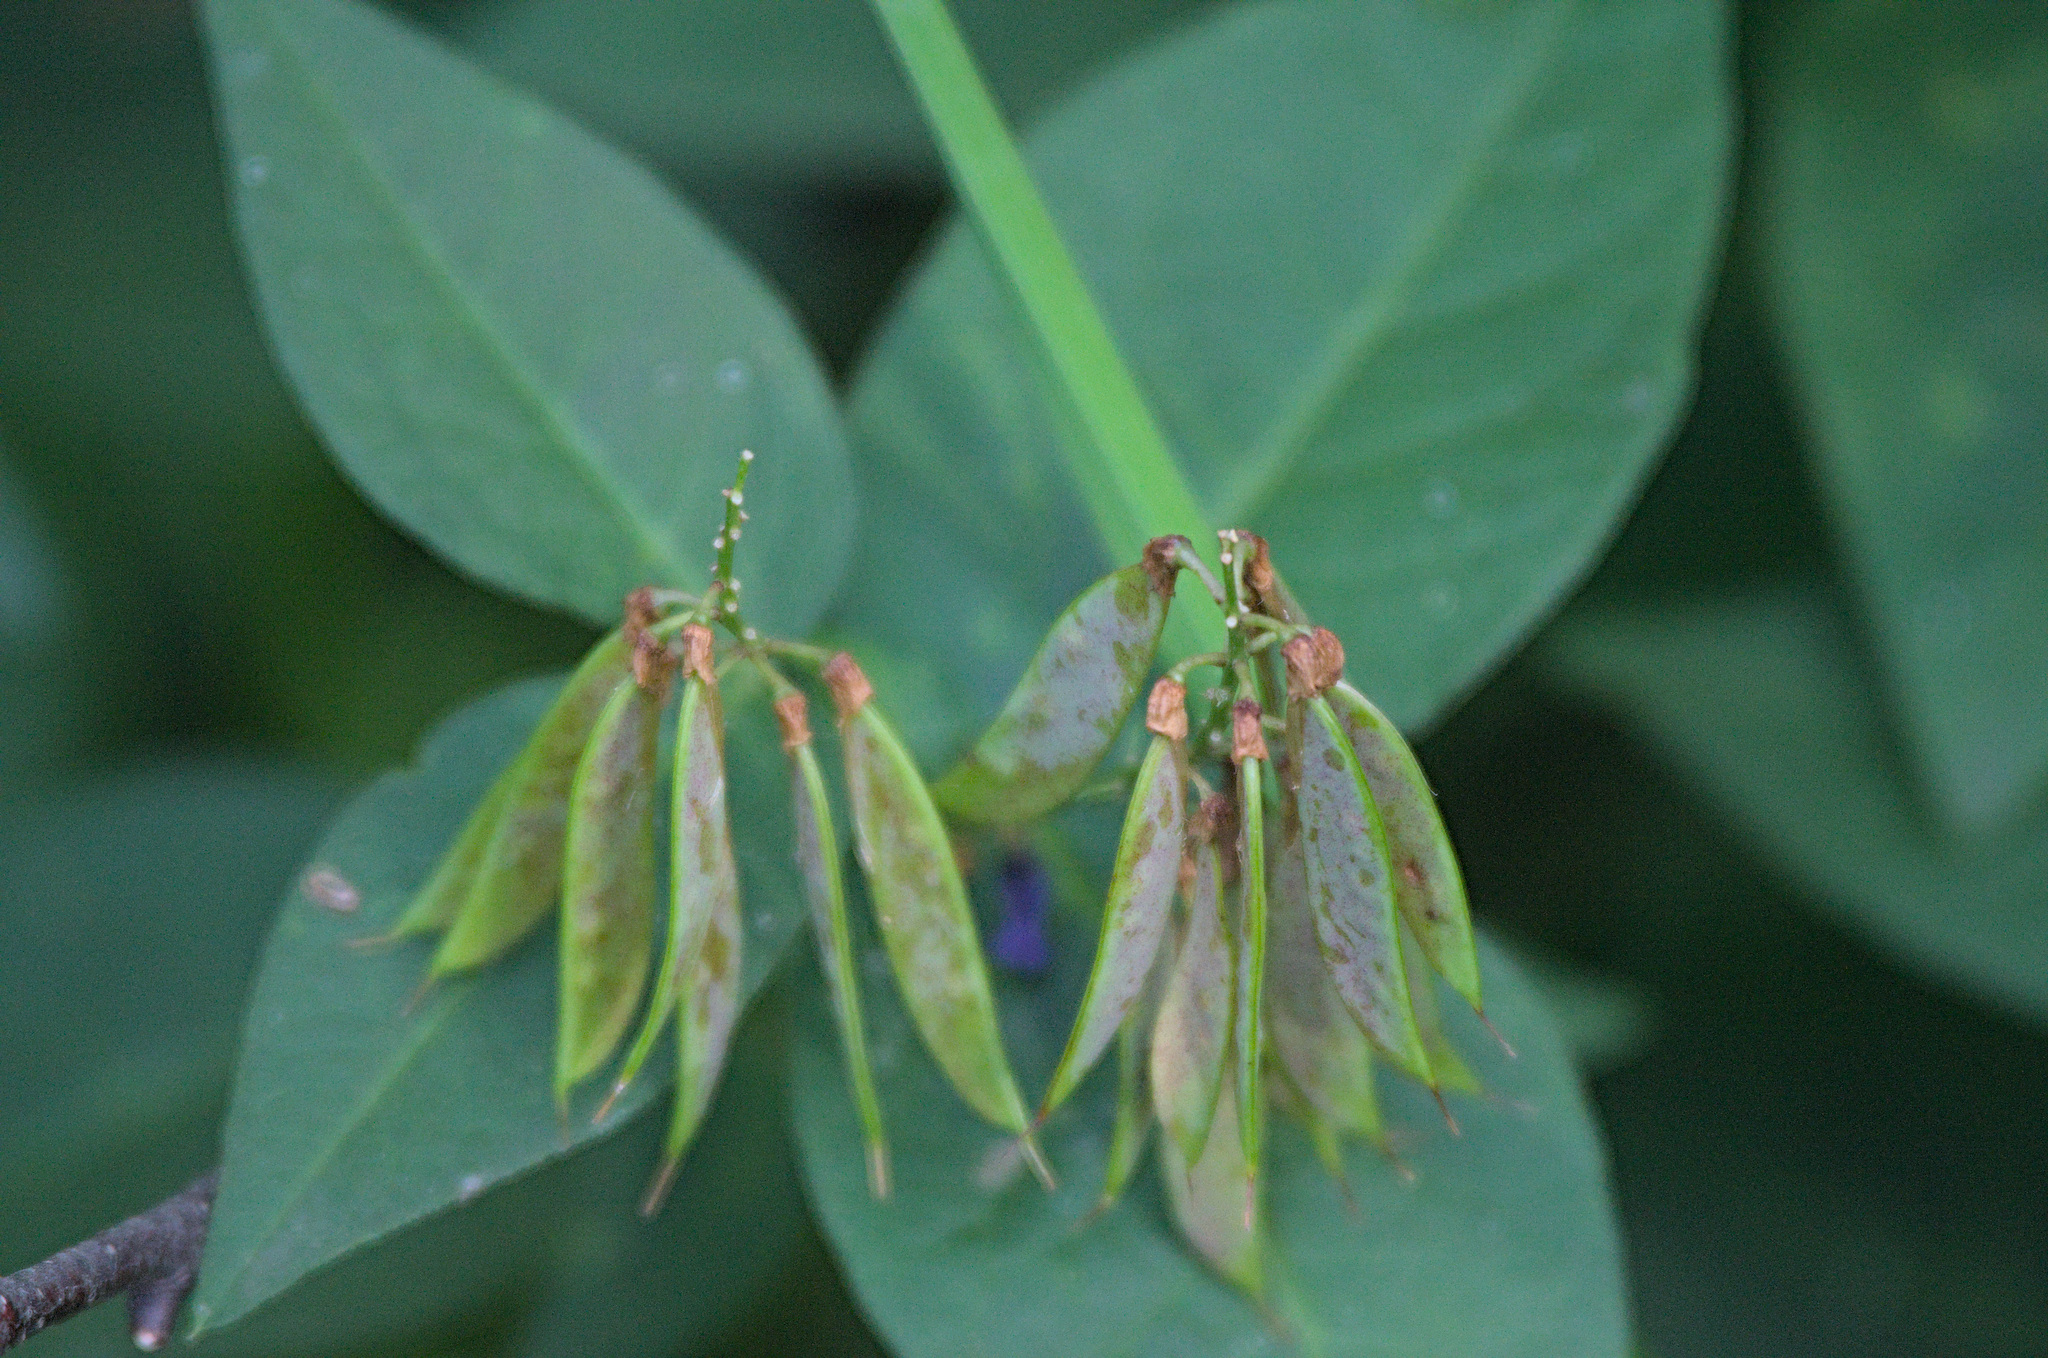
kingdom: Plantae
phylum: Tracheophyta
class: Magnoliopsida
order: Fabales
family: Fabaceae
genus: Vicia
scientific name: Vicia unijuga
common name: Two-leaf vetch
